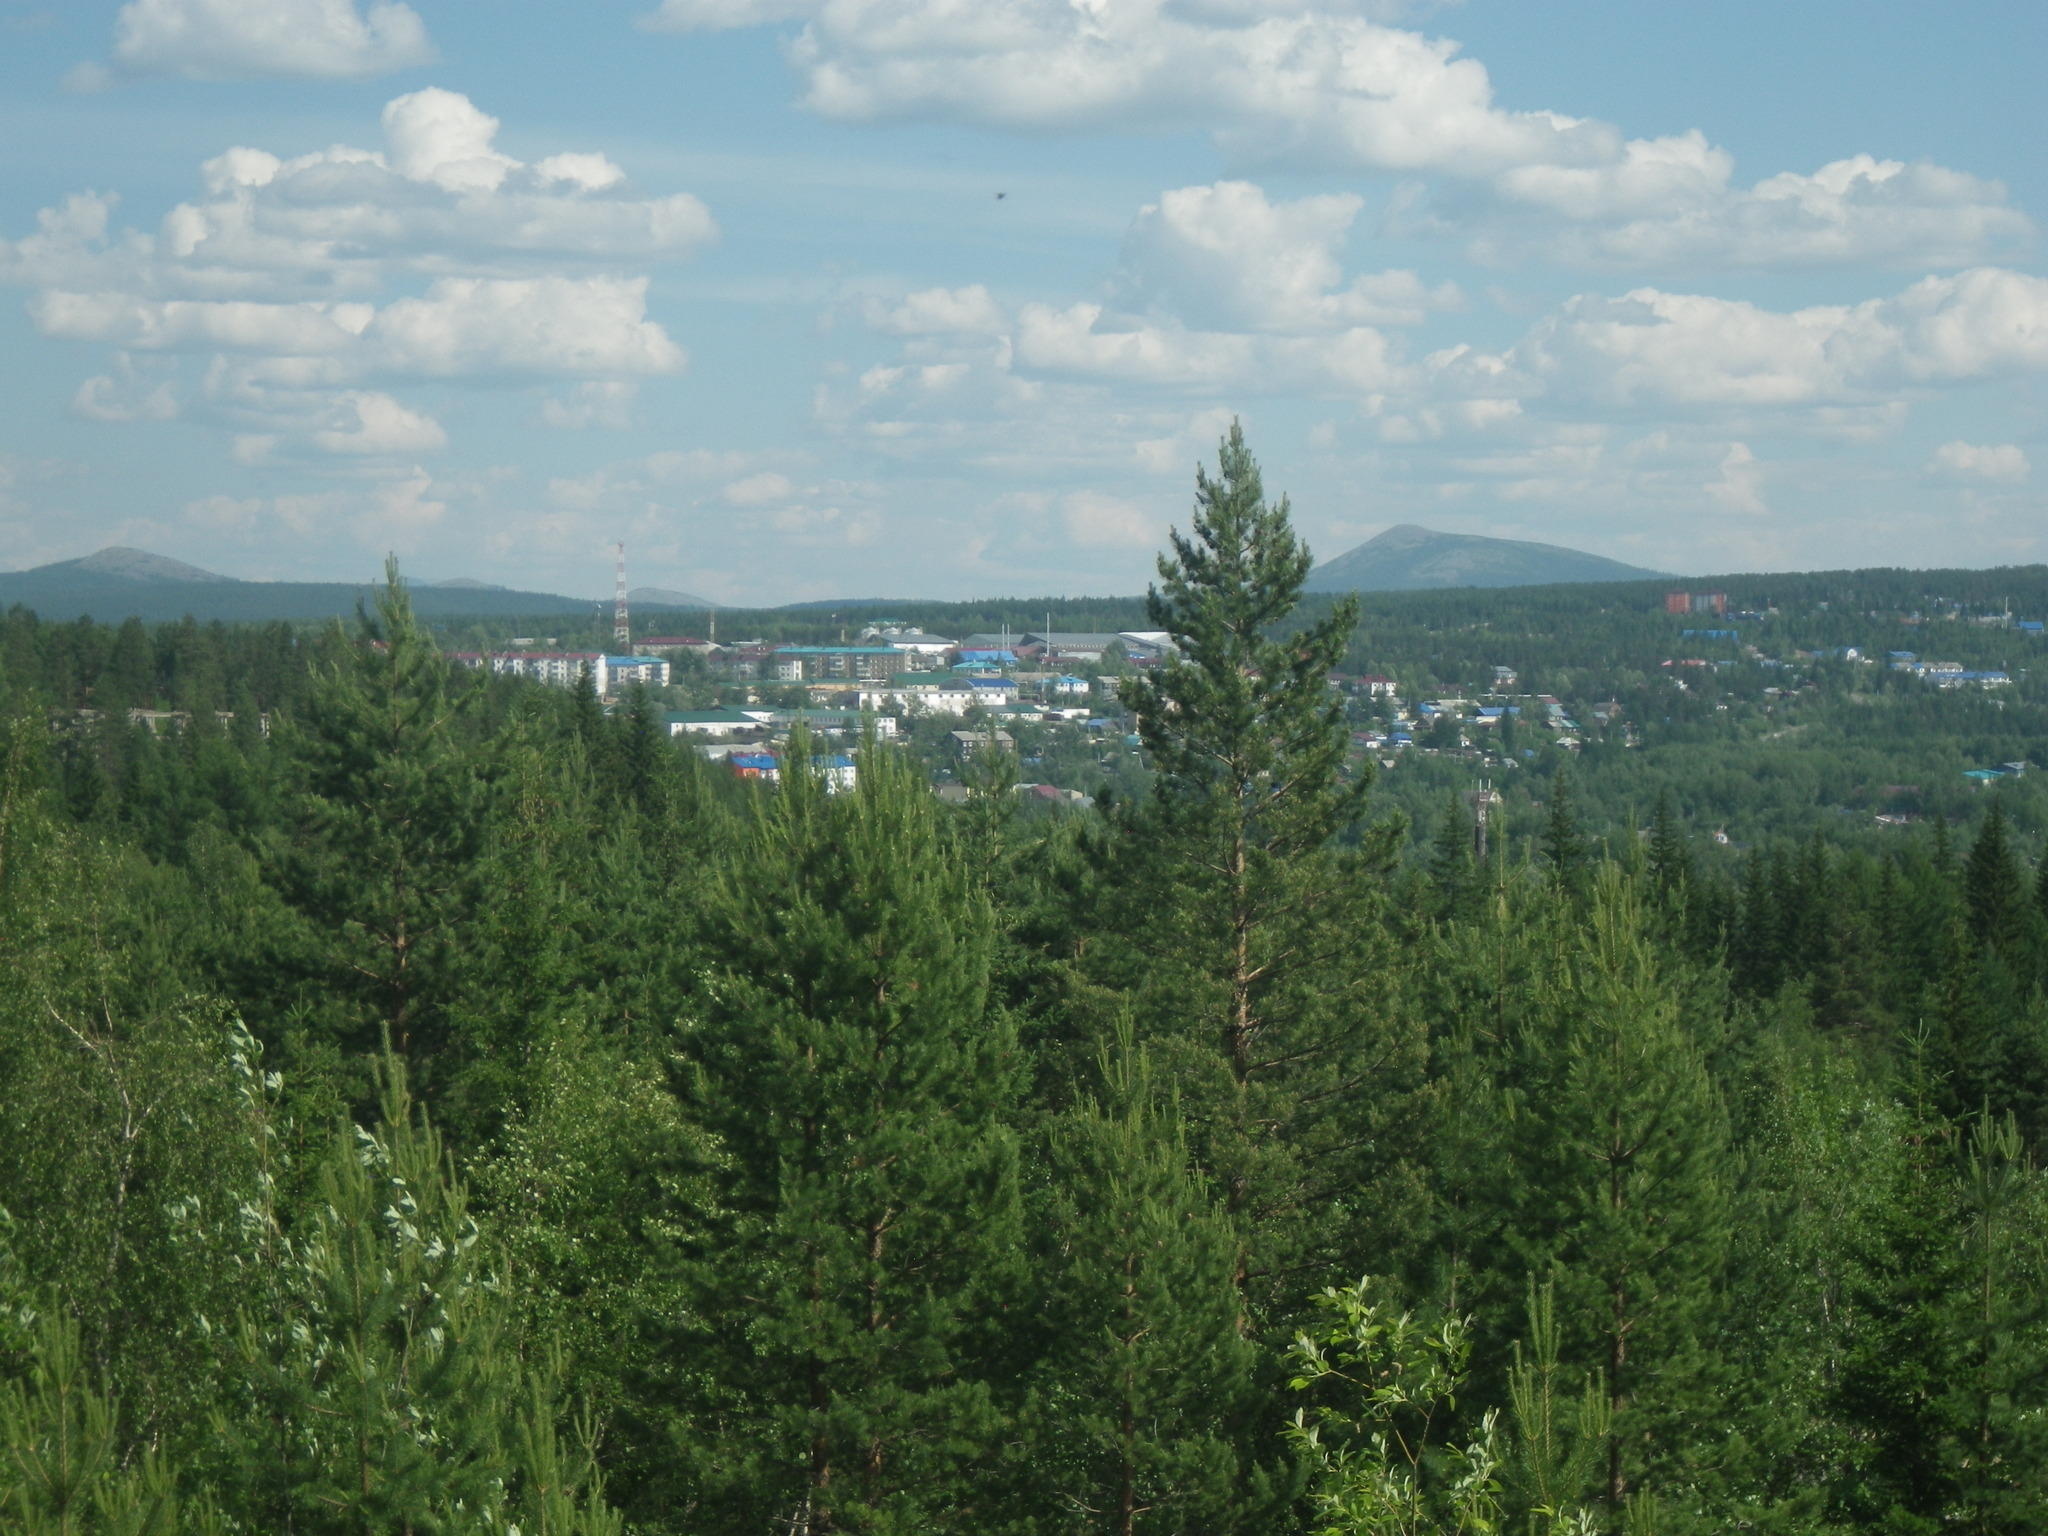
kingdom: Plantae
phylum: Tracheophyta
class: Pinopsida
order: Pinales
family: Pinaceae
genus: Pinus
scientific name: Pinus sylvestris
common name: Scots pine
